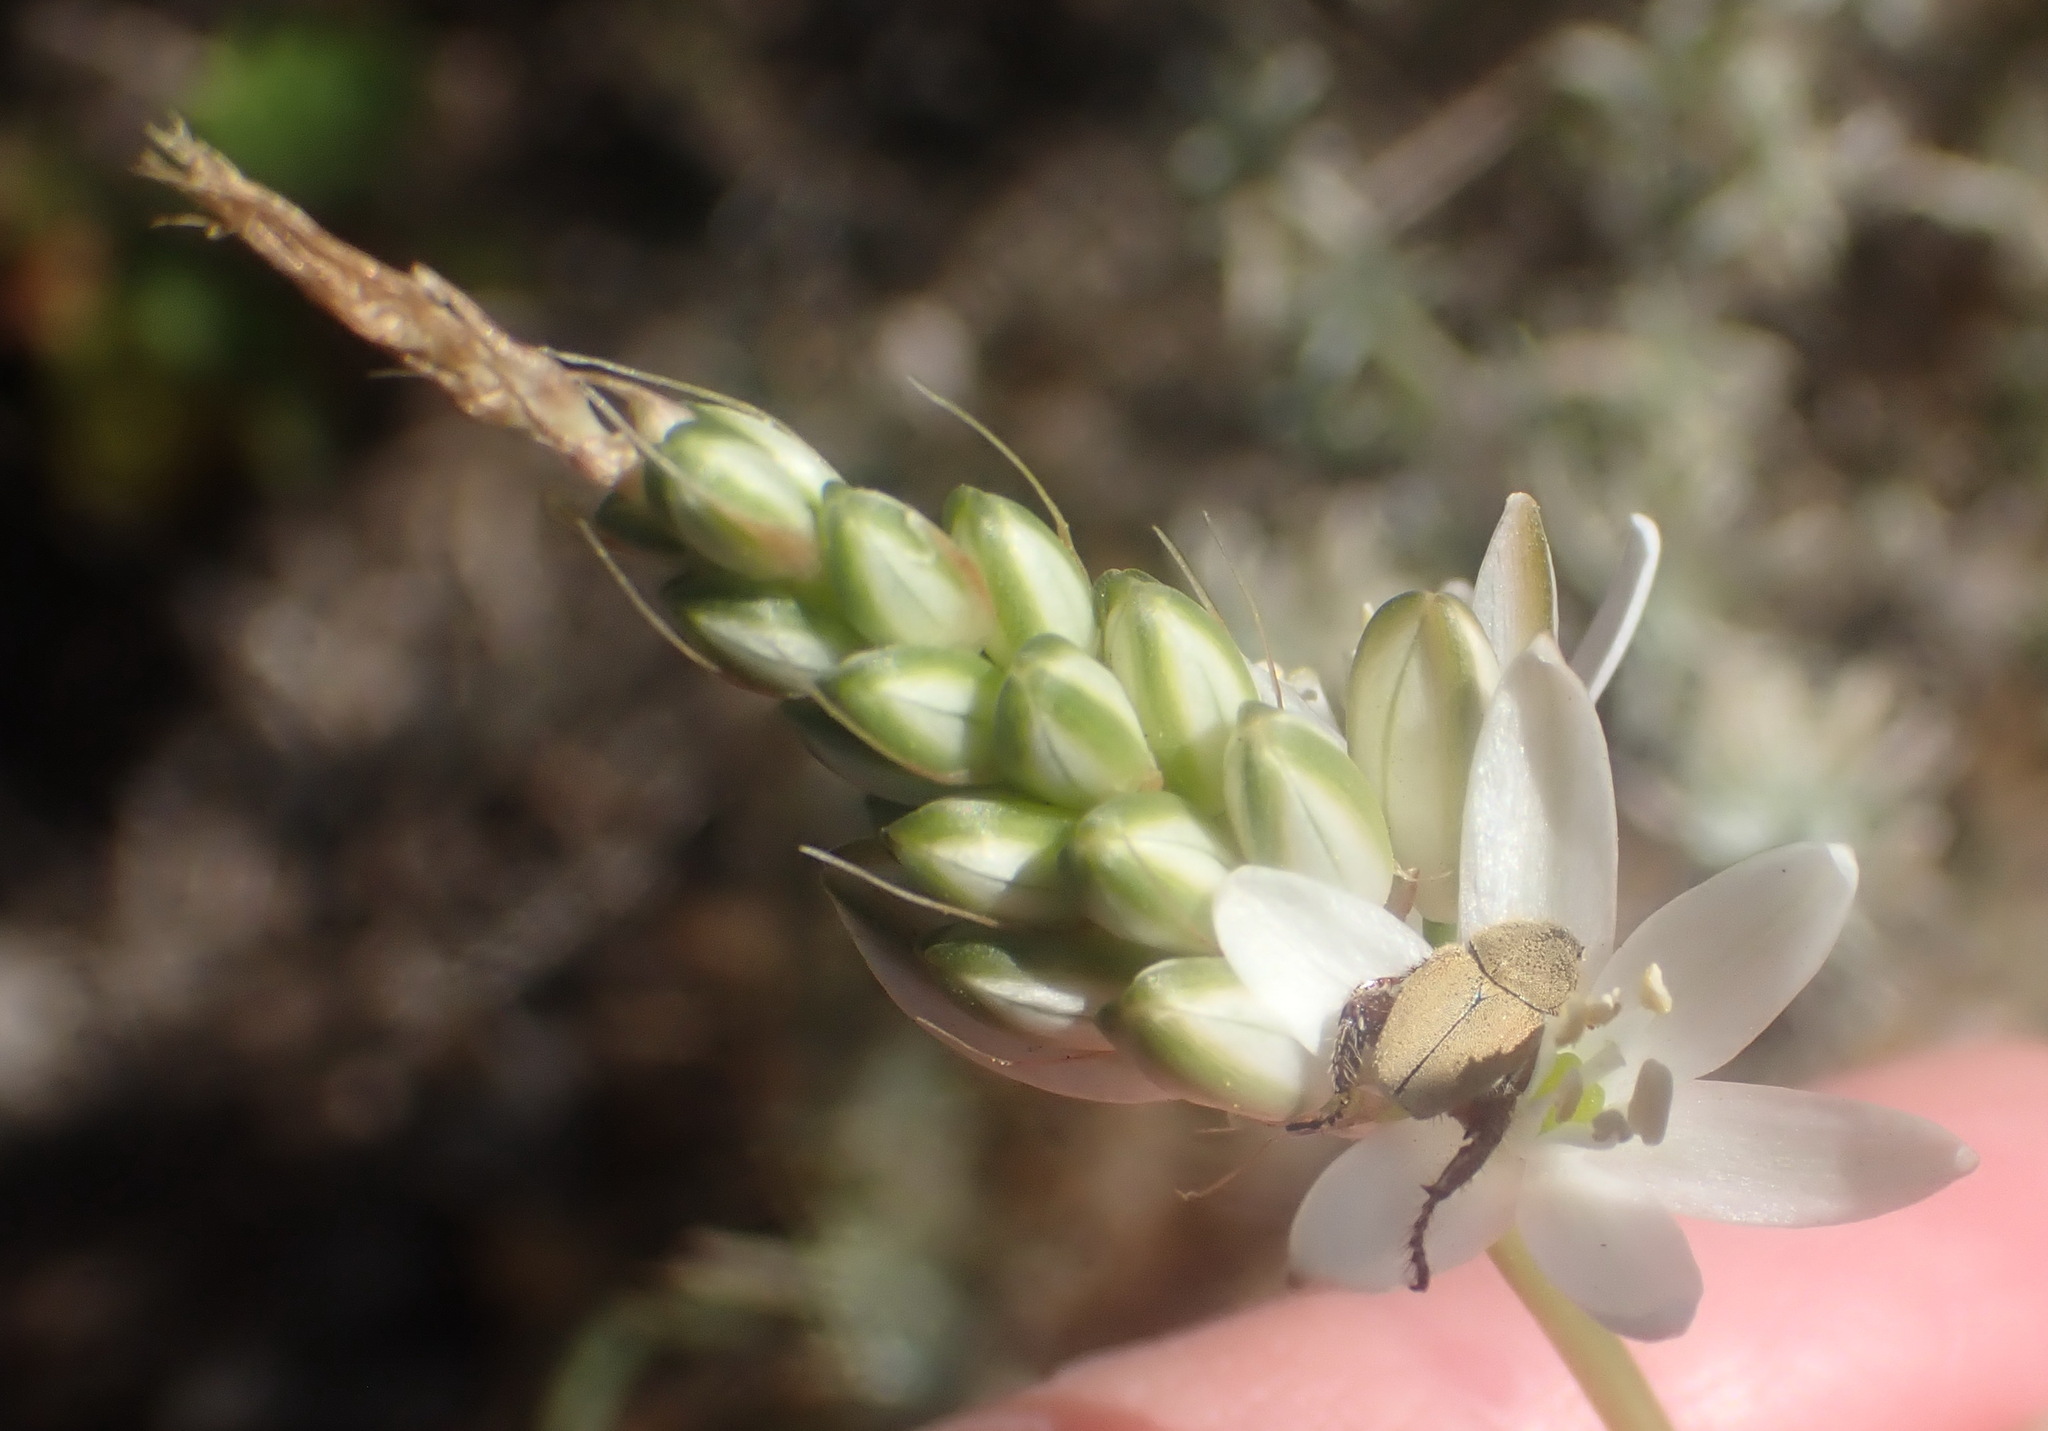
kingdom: Plantae
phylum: Tracheophyta
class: Liliopsida
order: Asparagales
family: Asparagaceae
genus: Ornithogalum
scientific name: Ornithogalum graminifolium
